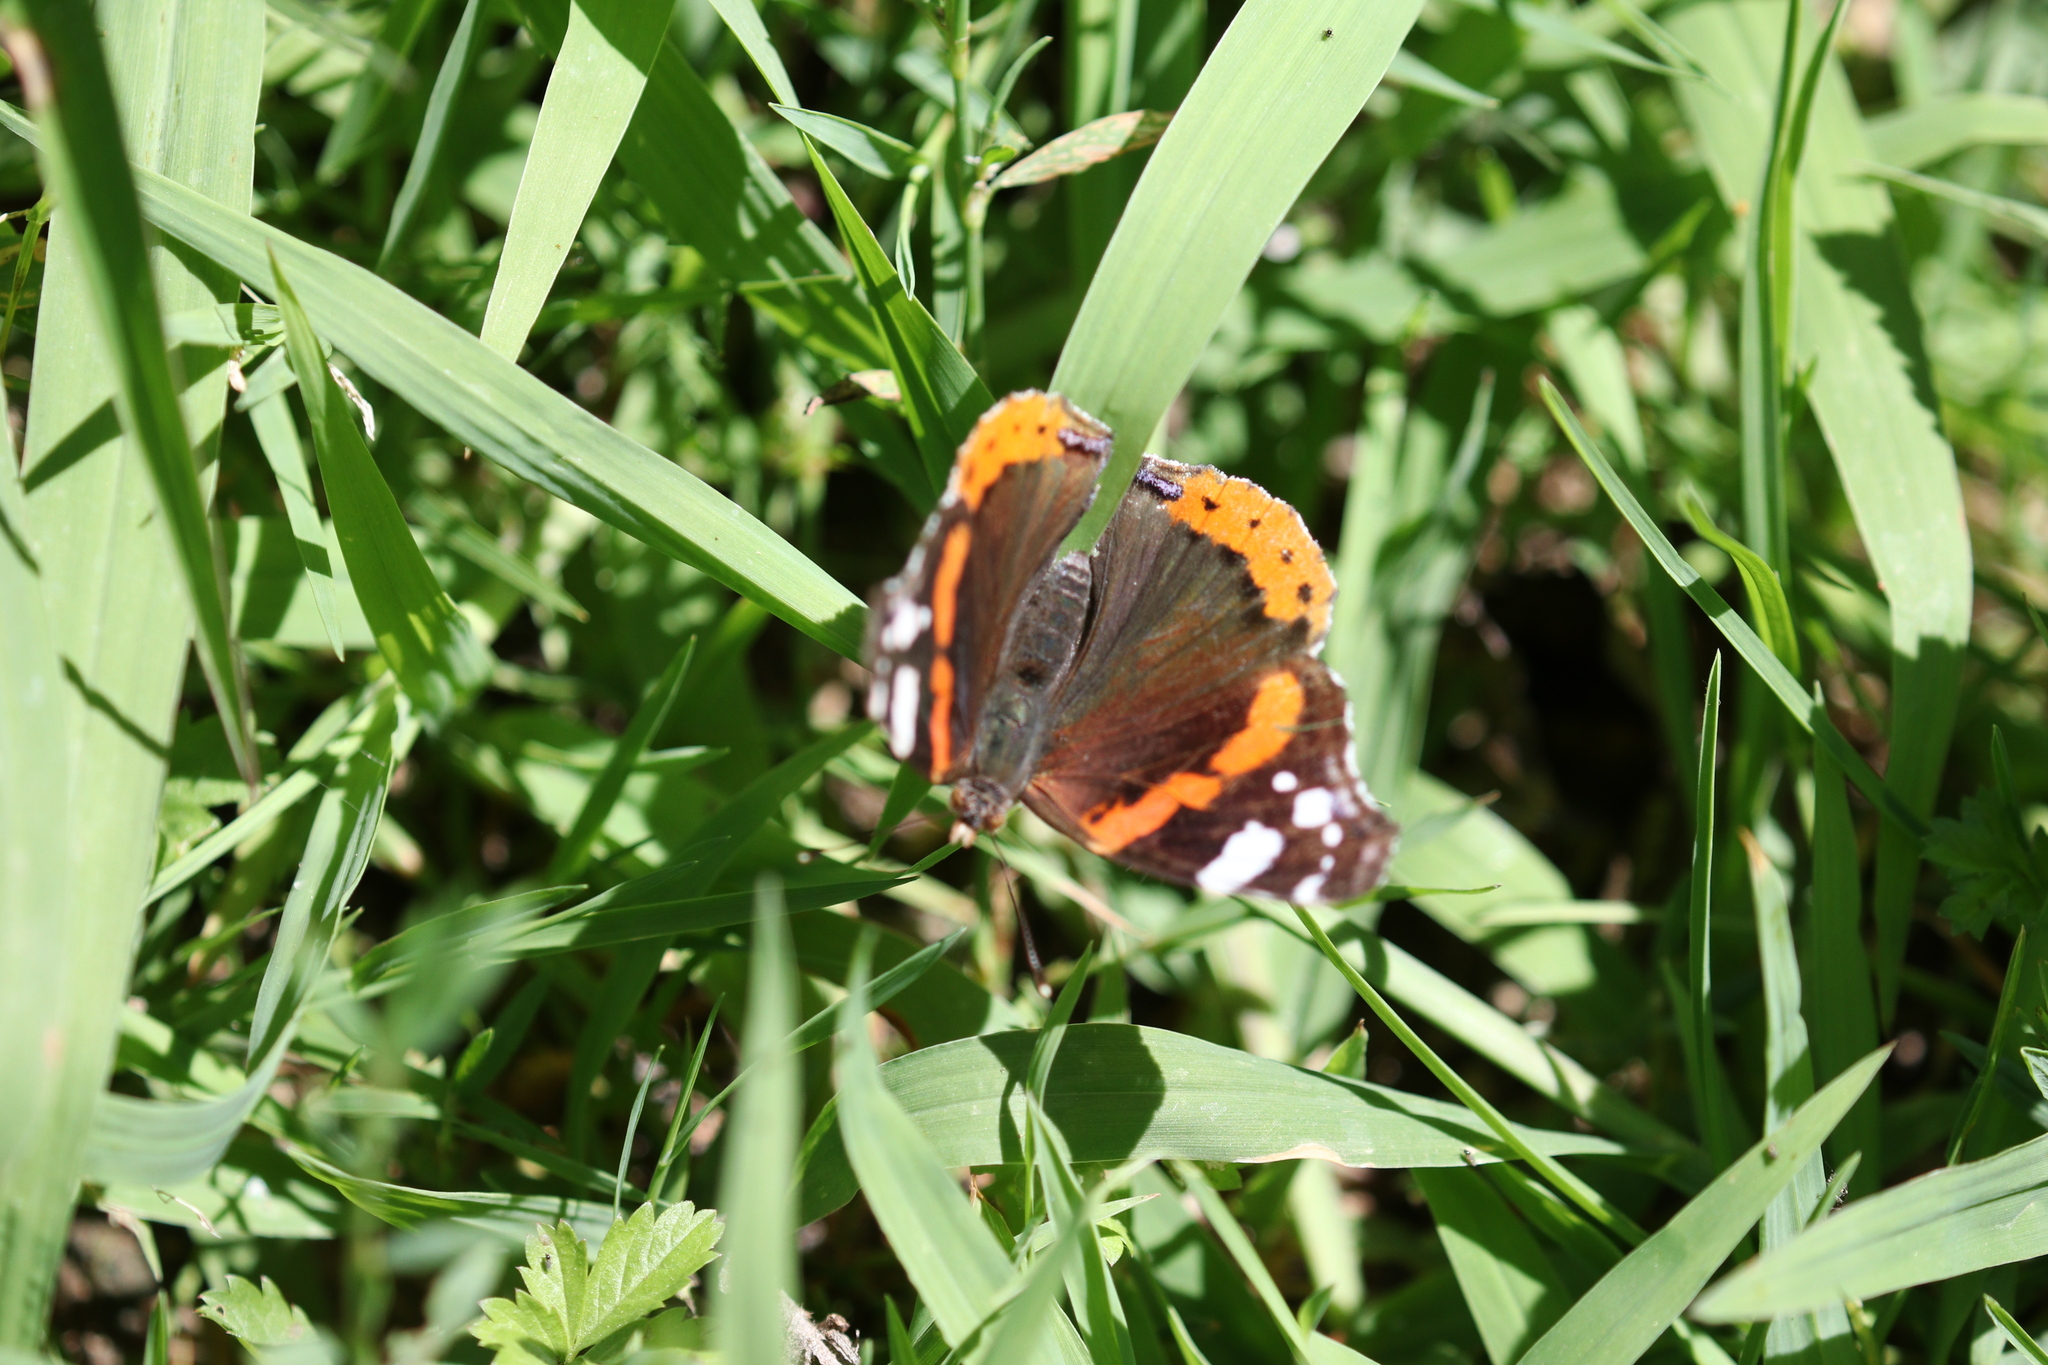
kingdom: Animalia
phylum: Arthropoda
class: Insecta
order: Lepidoptera
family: Nymphalidae
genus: Vanessa
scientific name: Vanessa atalanta
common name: Red admiral
